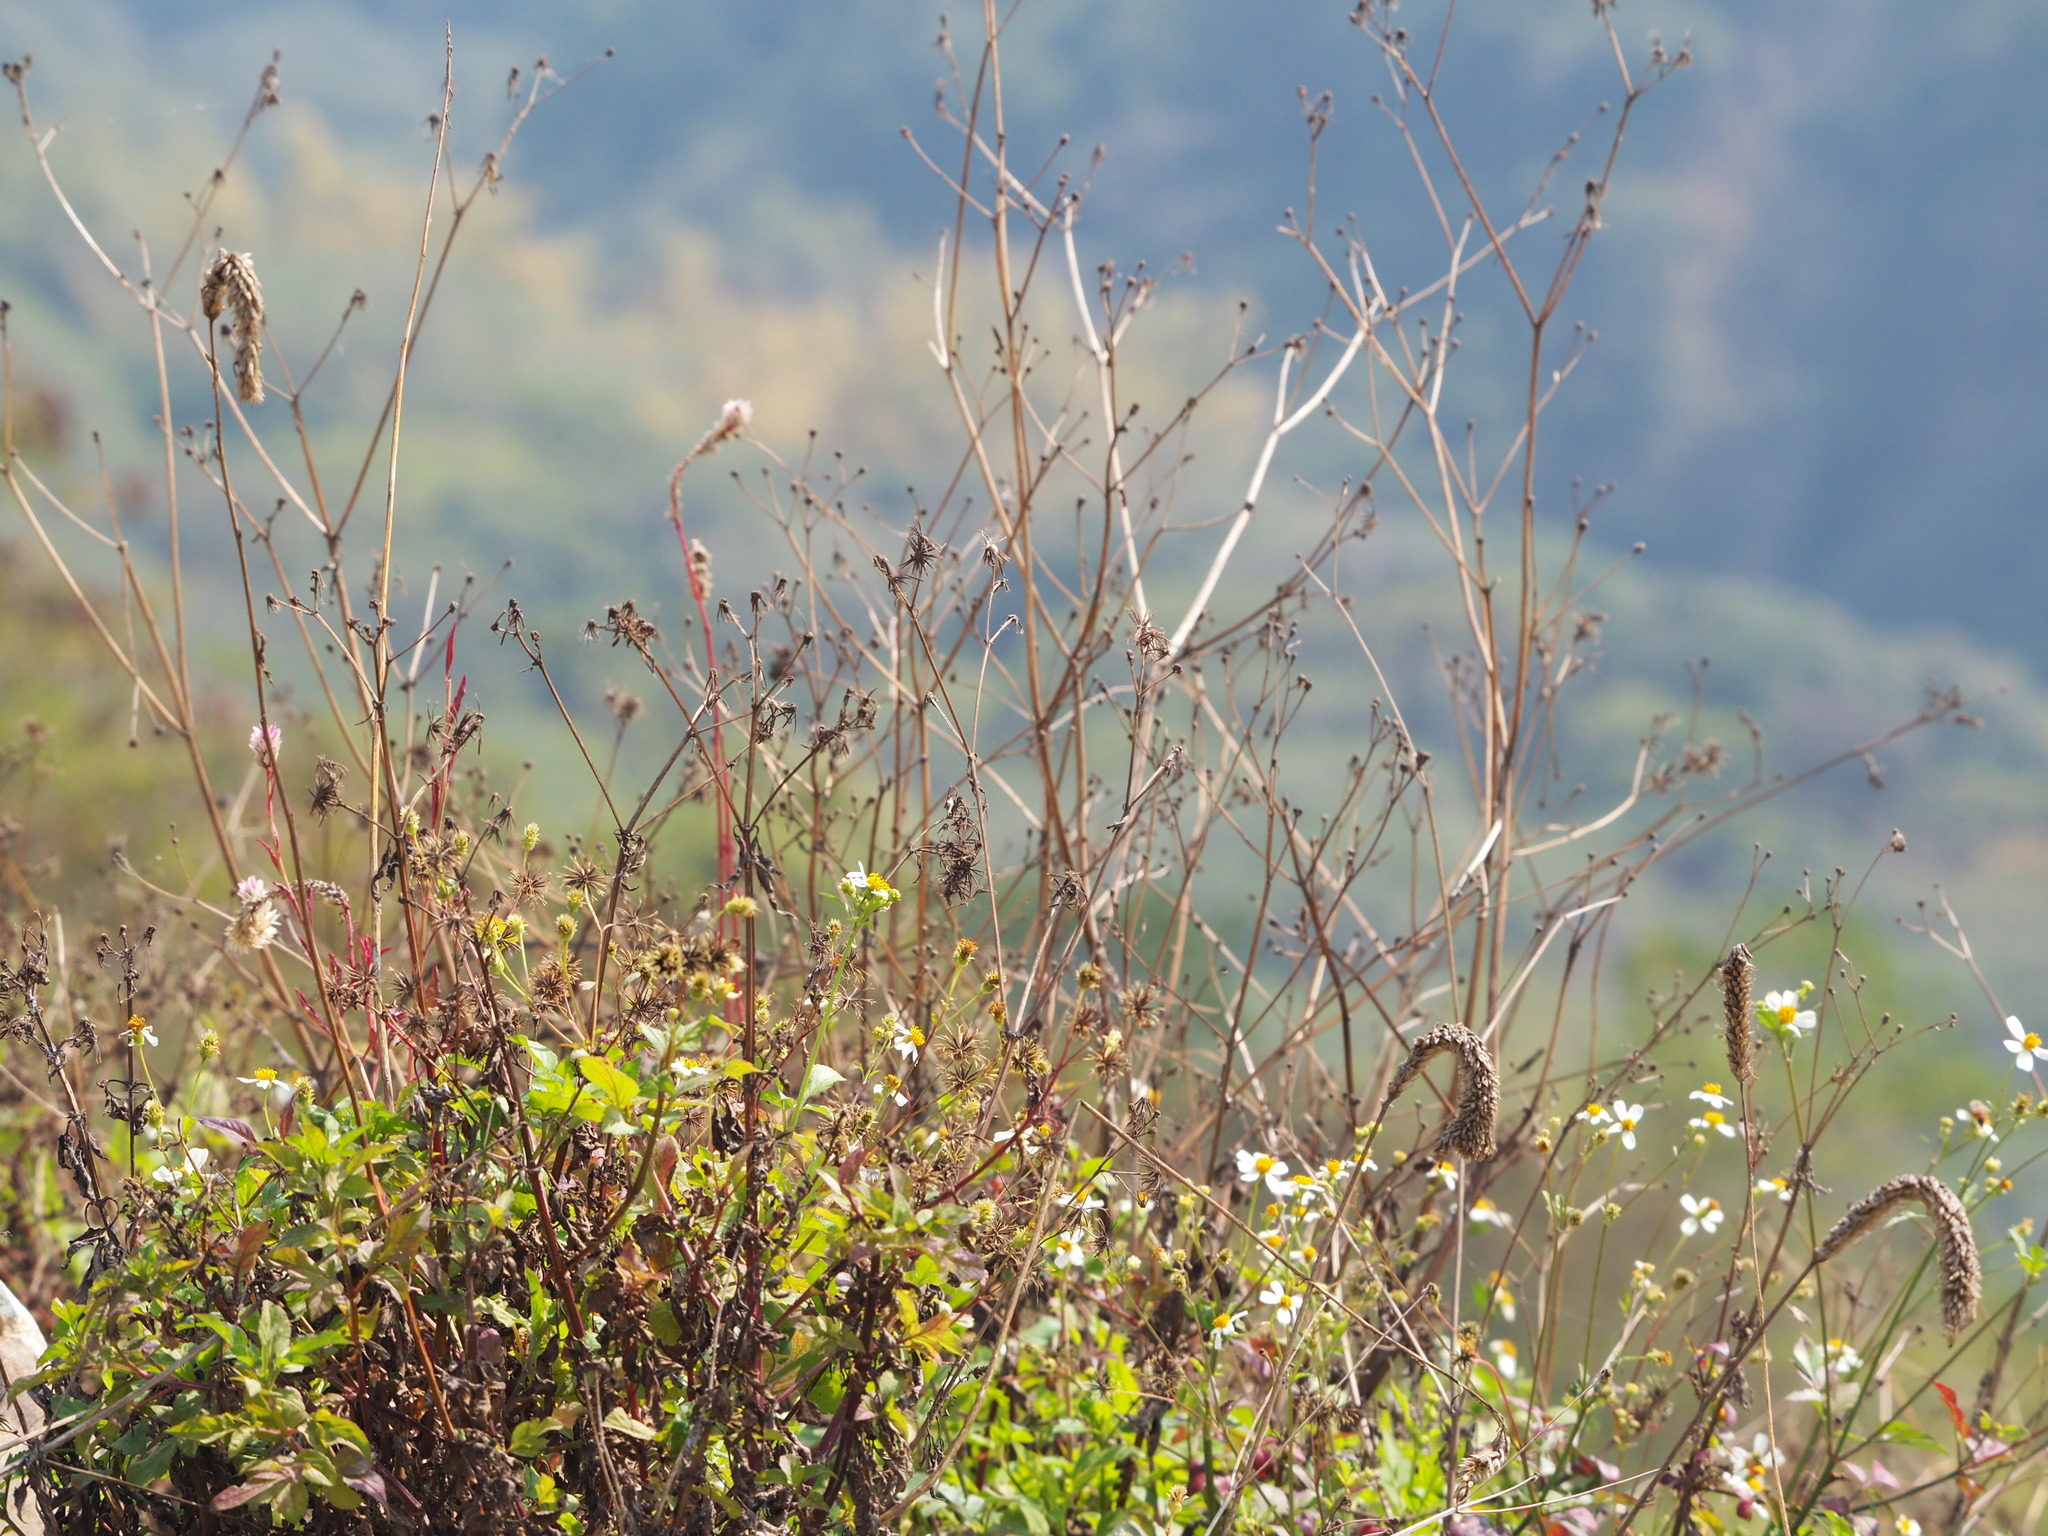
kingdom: Plantae
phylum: Tracheophyta
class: Magnoliopsida
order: Asterales
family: Asteraceae
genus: Bidens
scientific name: Bidens alba
